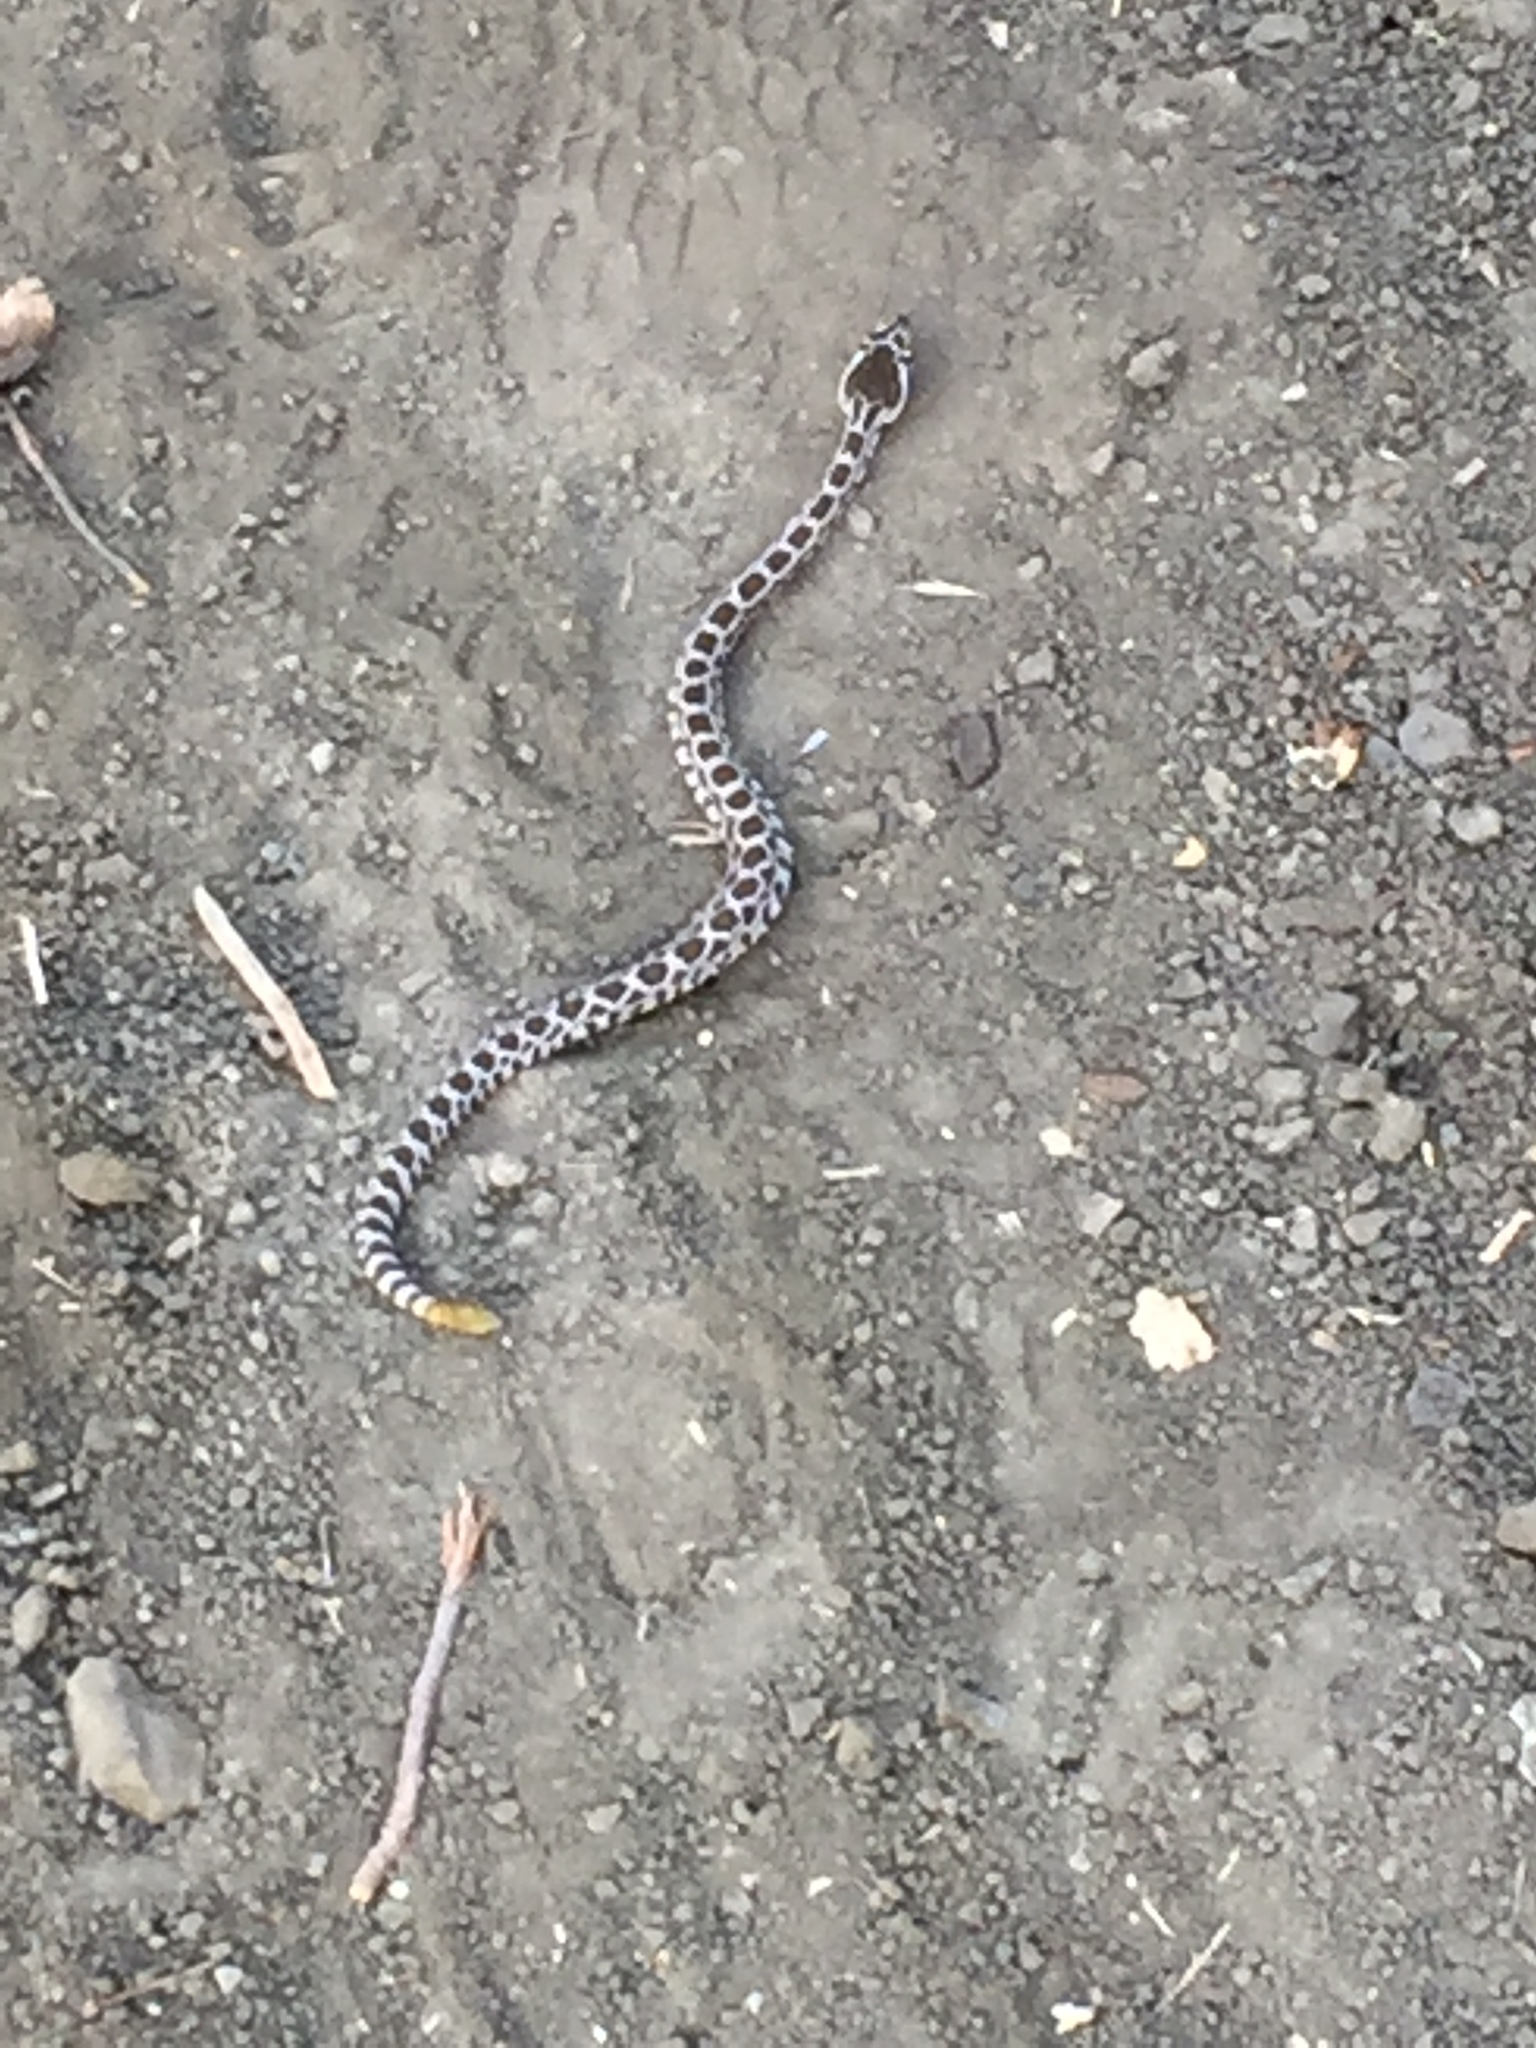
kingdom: Animalia
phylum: Chordata
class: Squamata
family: Viperidae
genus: Crotalus
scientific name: Crotalus oreganus
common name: Abyssus
